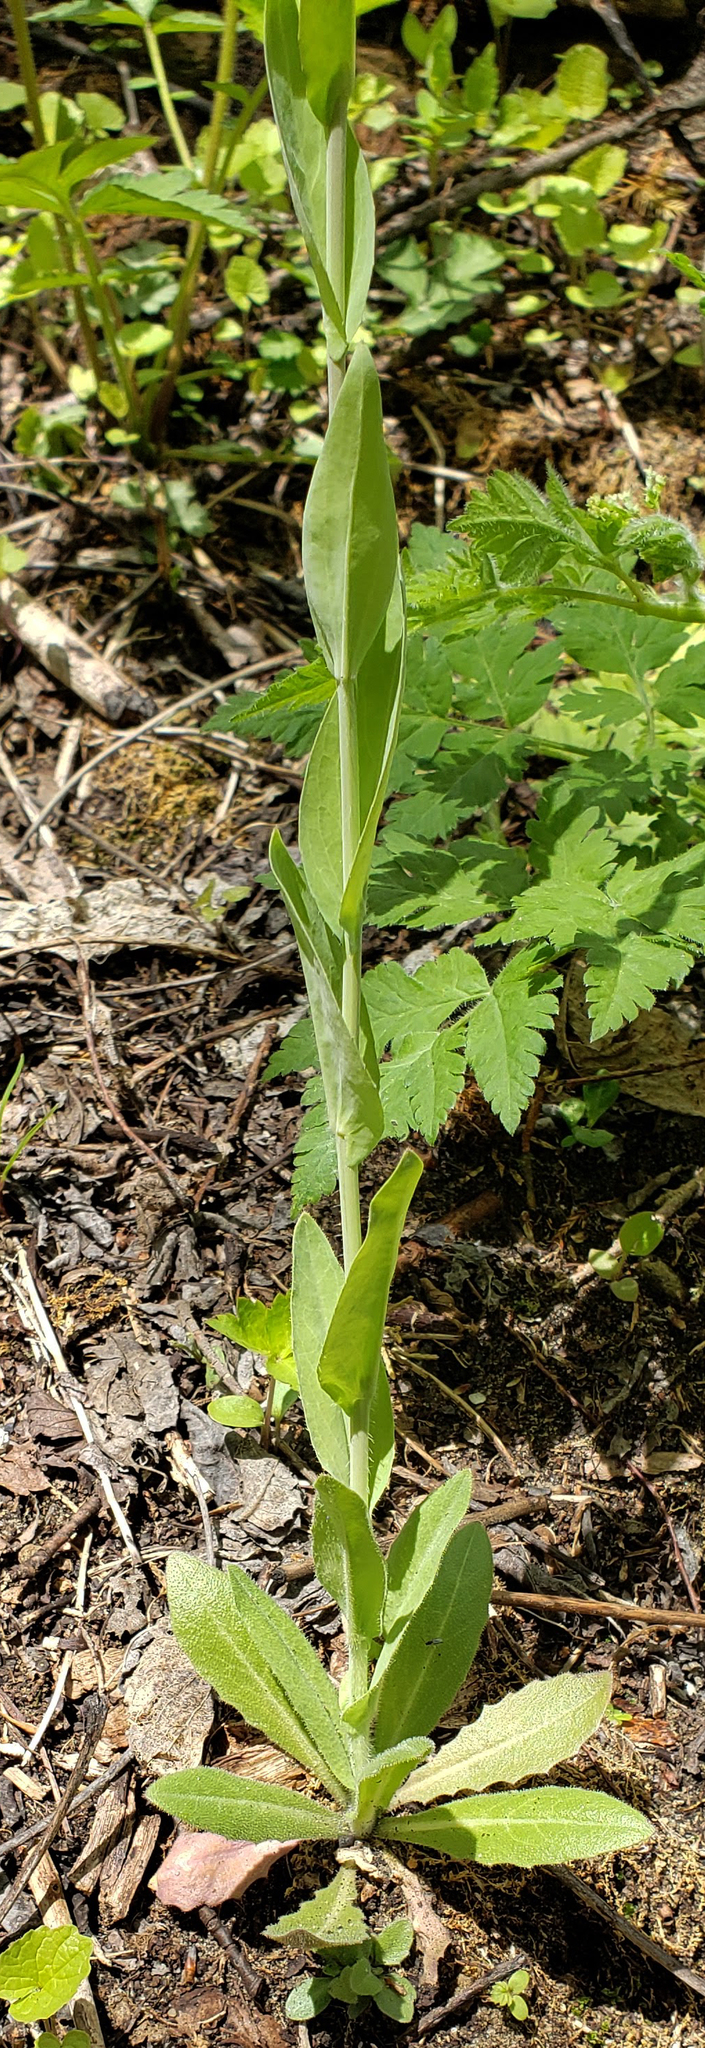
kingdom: Plantae
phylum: Tracheophyta
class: Magnoliopsida
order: Brassicales
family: Brassicaceae
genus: Turritis
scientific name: Turritis glabra
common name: Tower rockcress
